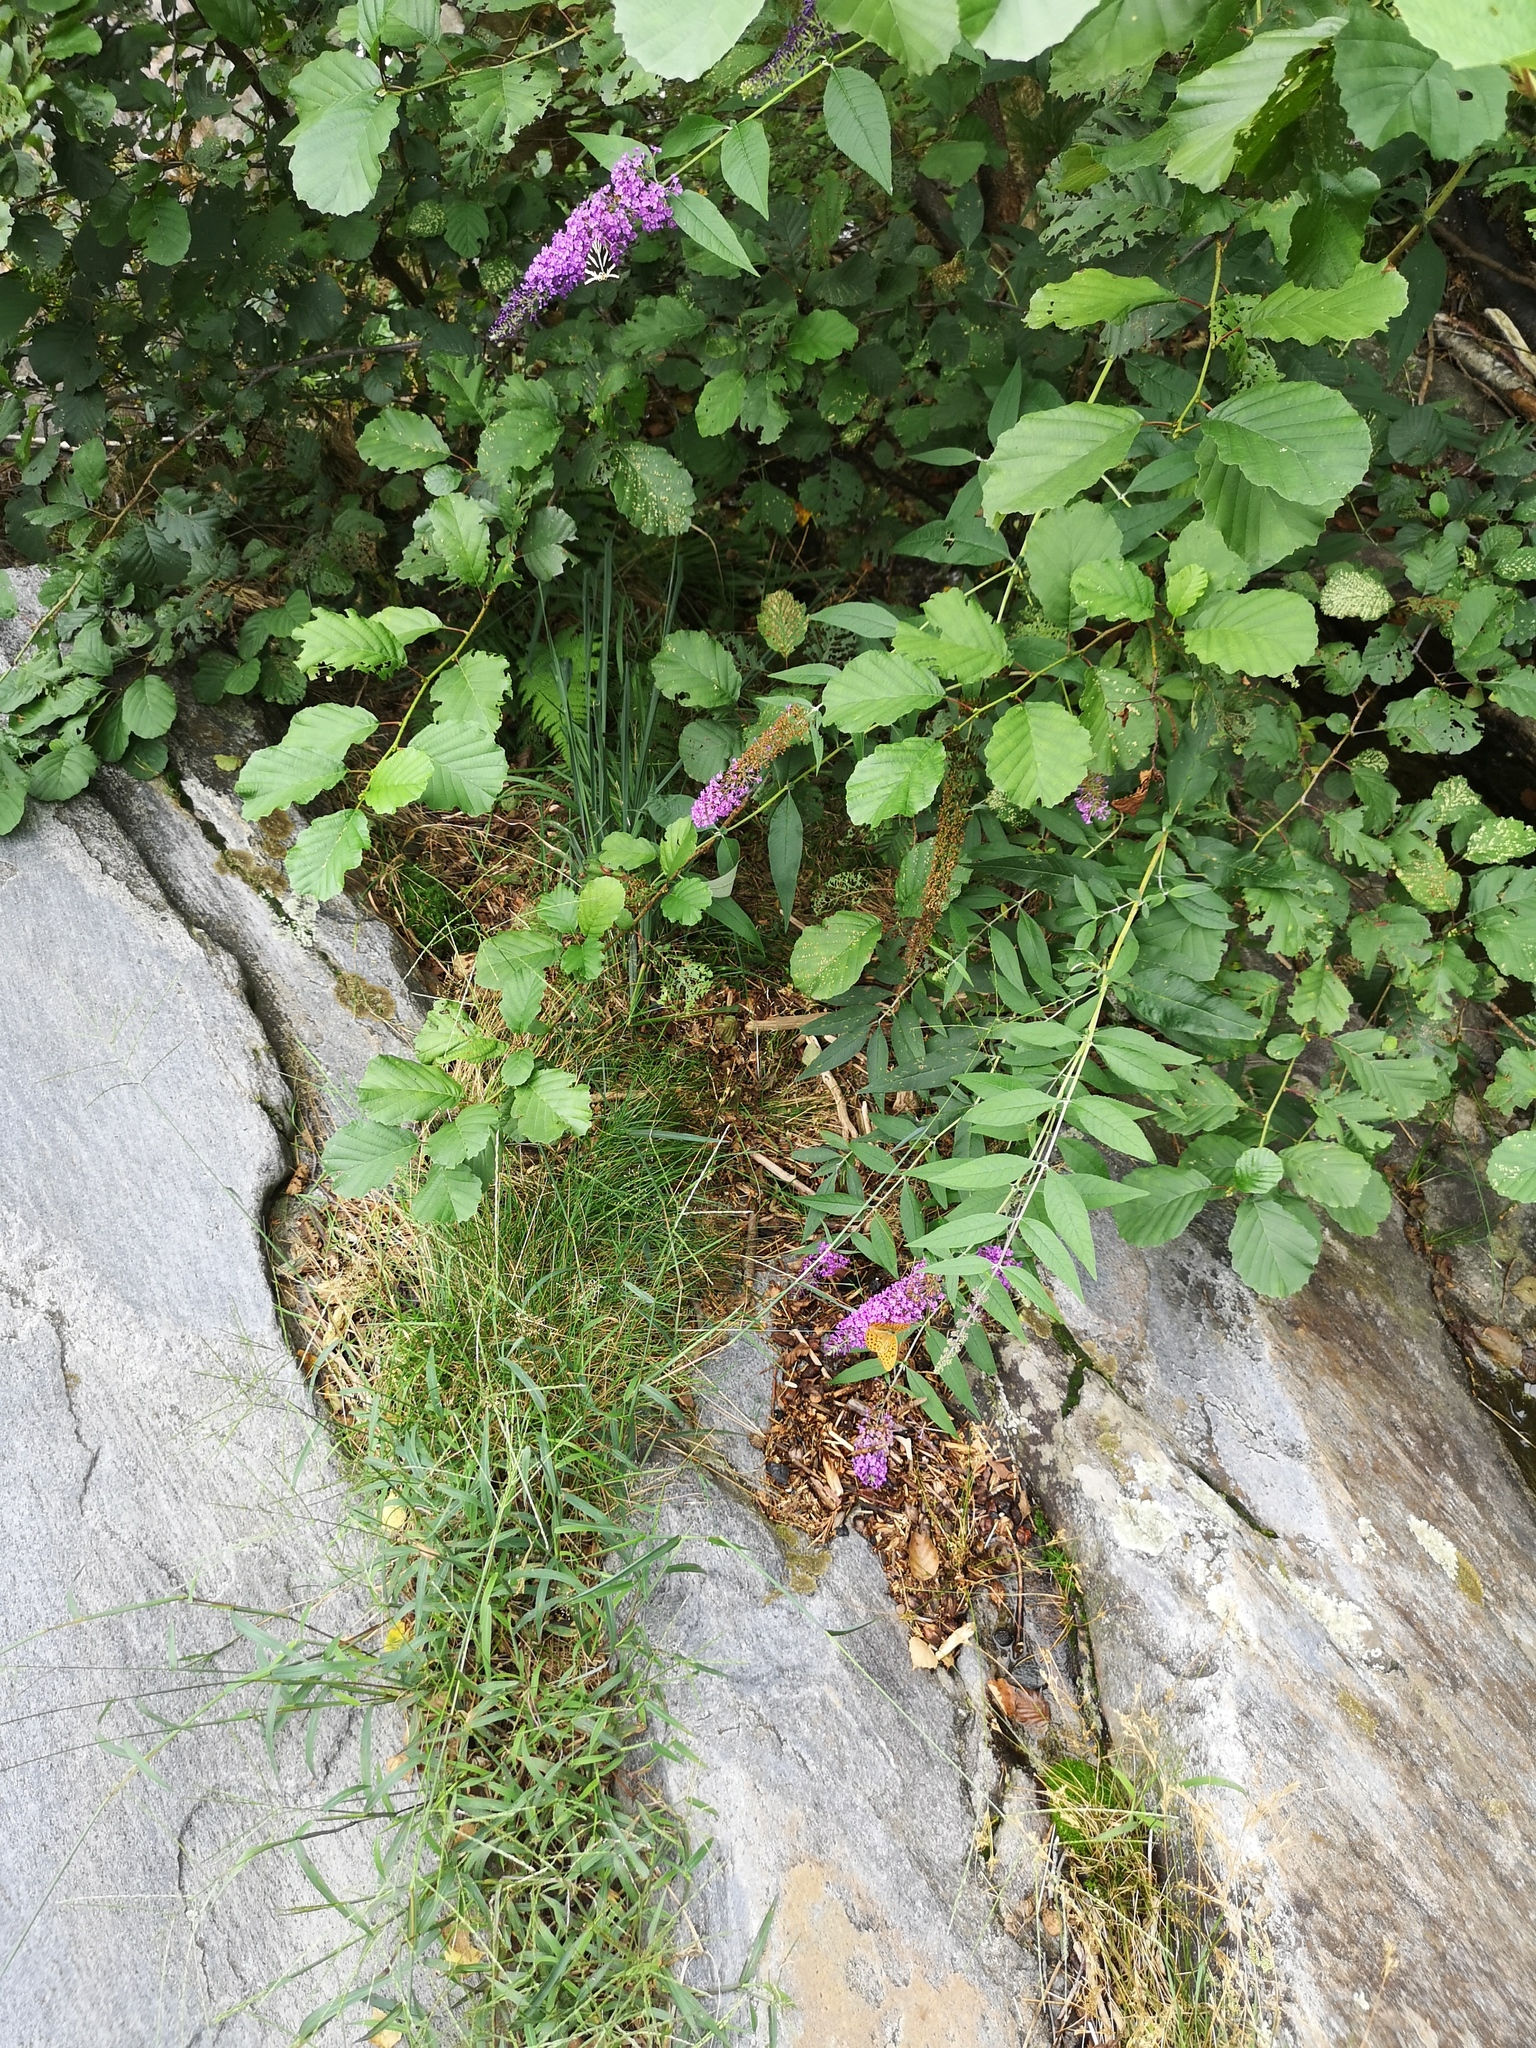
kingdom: Plantae
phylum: Tracheophyta
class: Magnoliopsida
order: Lamiales
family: Scrophulariaceae
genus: Buddleja
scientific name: Buddleja davidii
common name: Butterfly-bush
